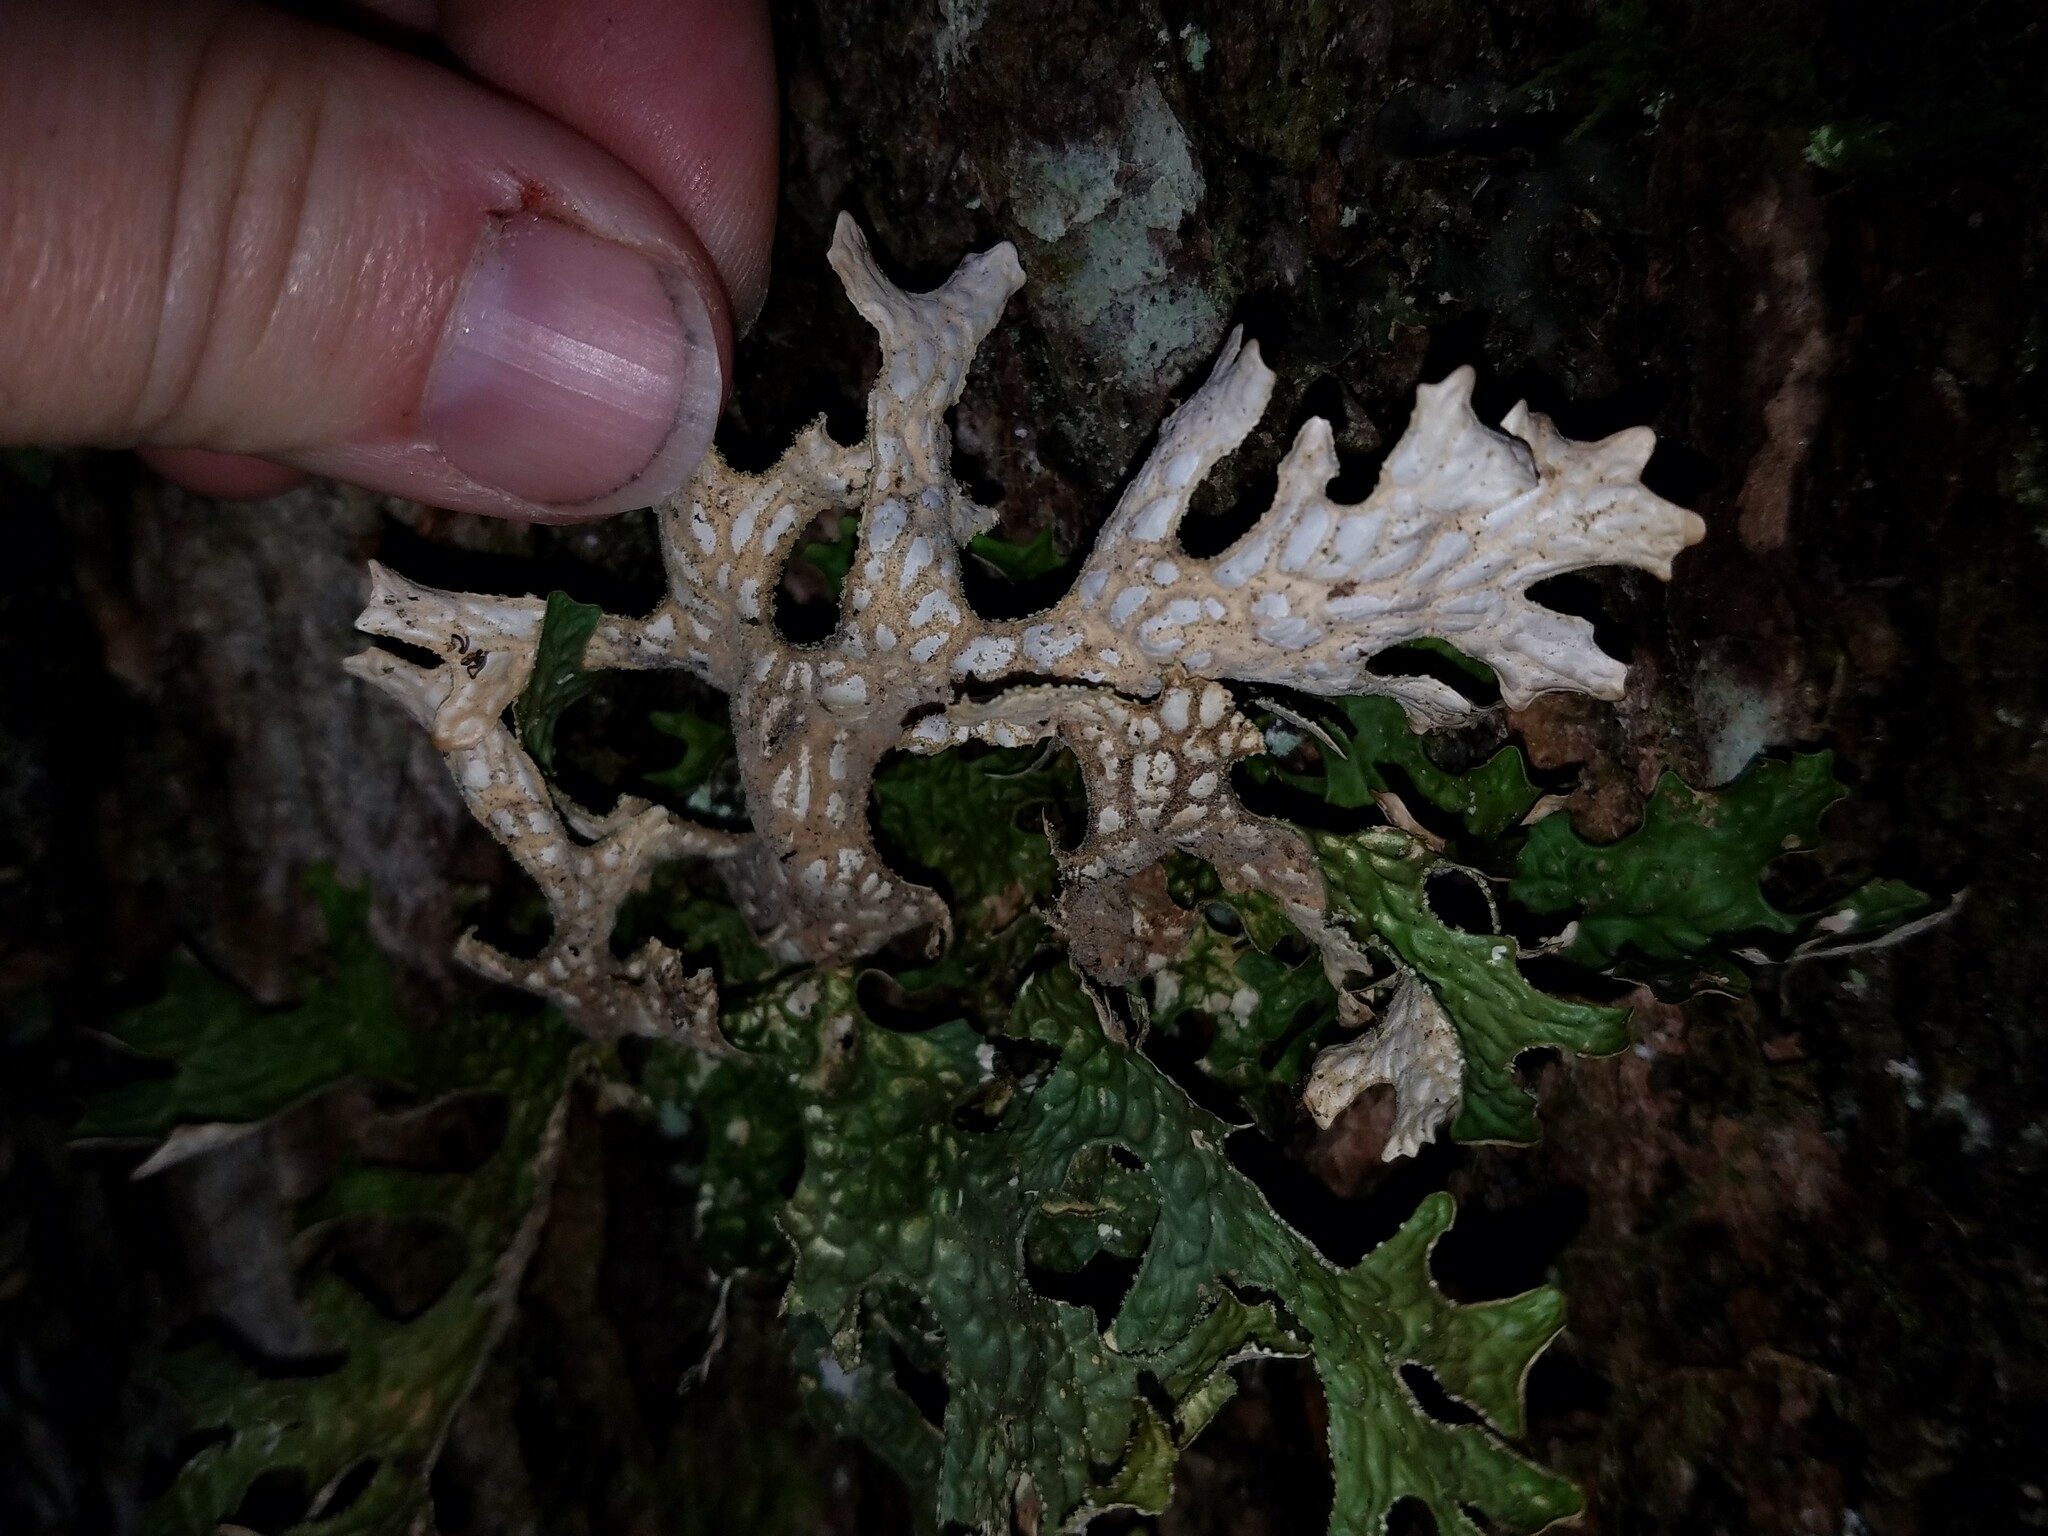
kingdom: Fungi
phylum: Ascomycota
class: Lecanoromycetes
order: Peltigerales
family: Lobariaceae
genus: Lobaria
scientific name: Lobaria pulmonaria
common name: Lungwort
